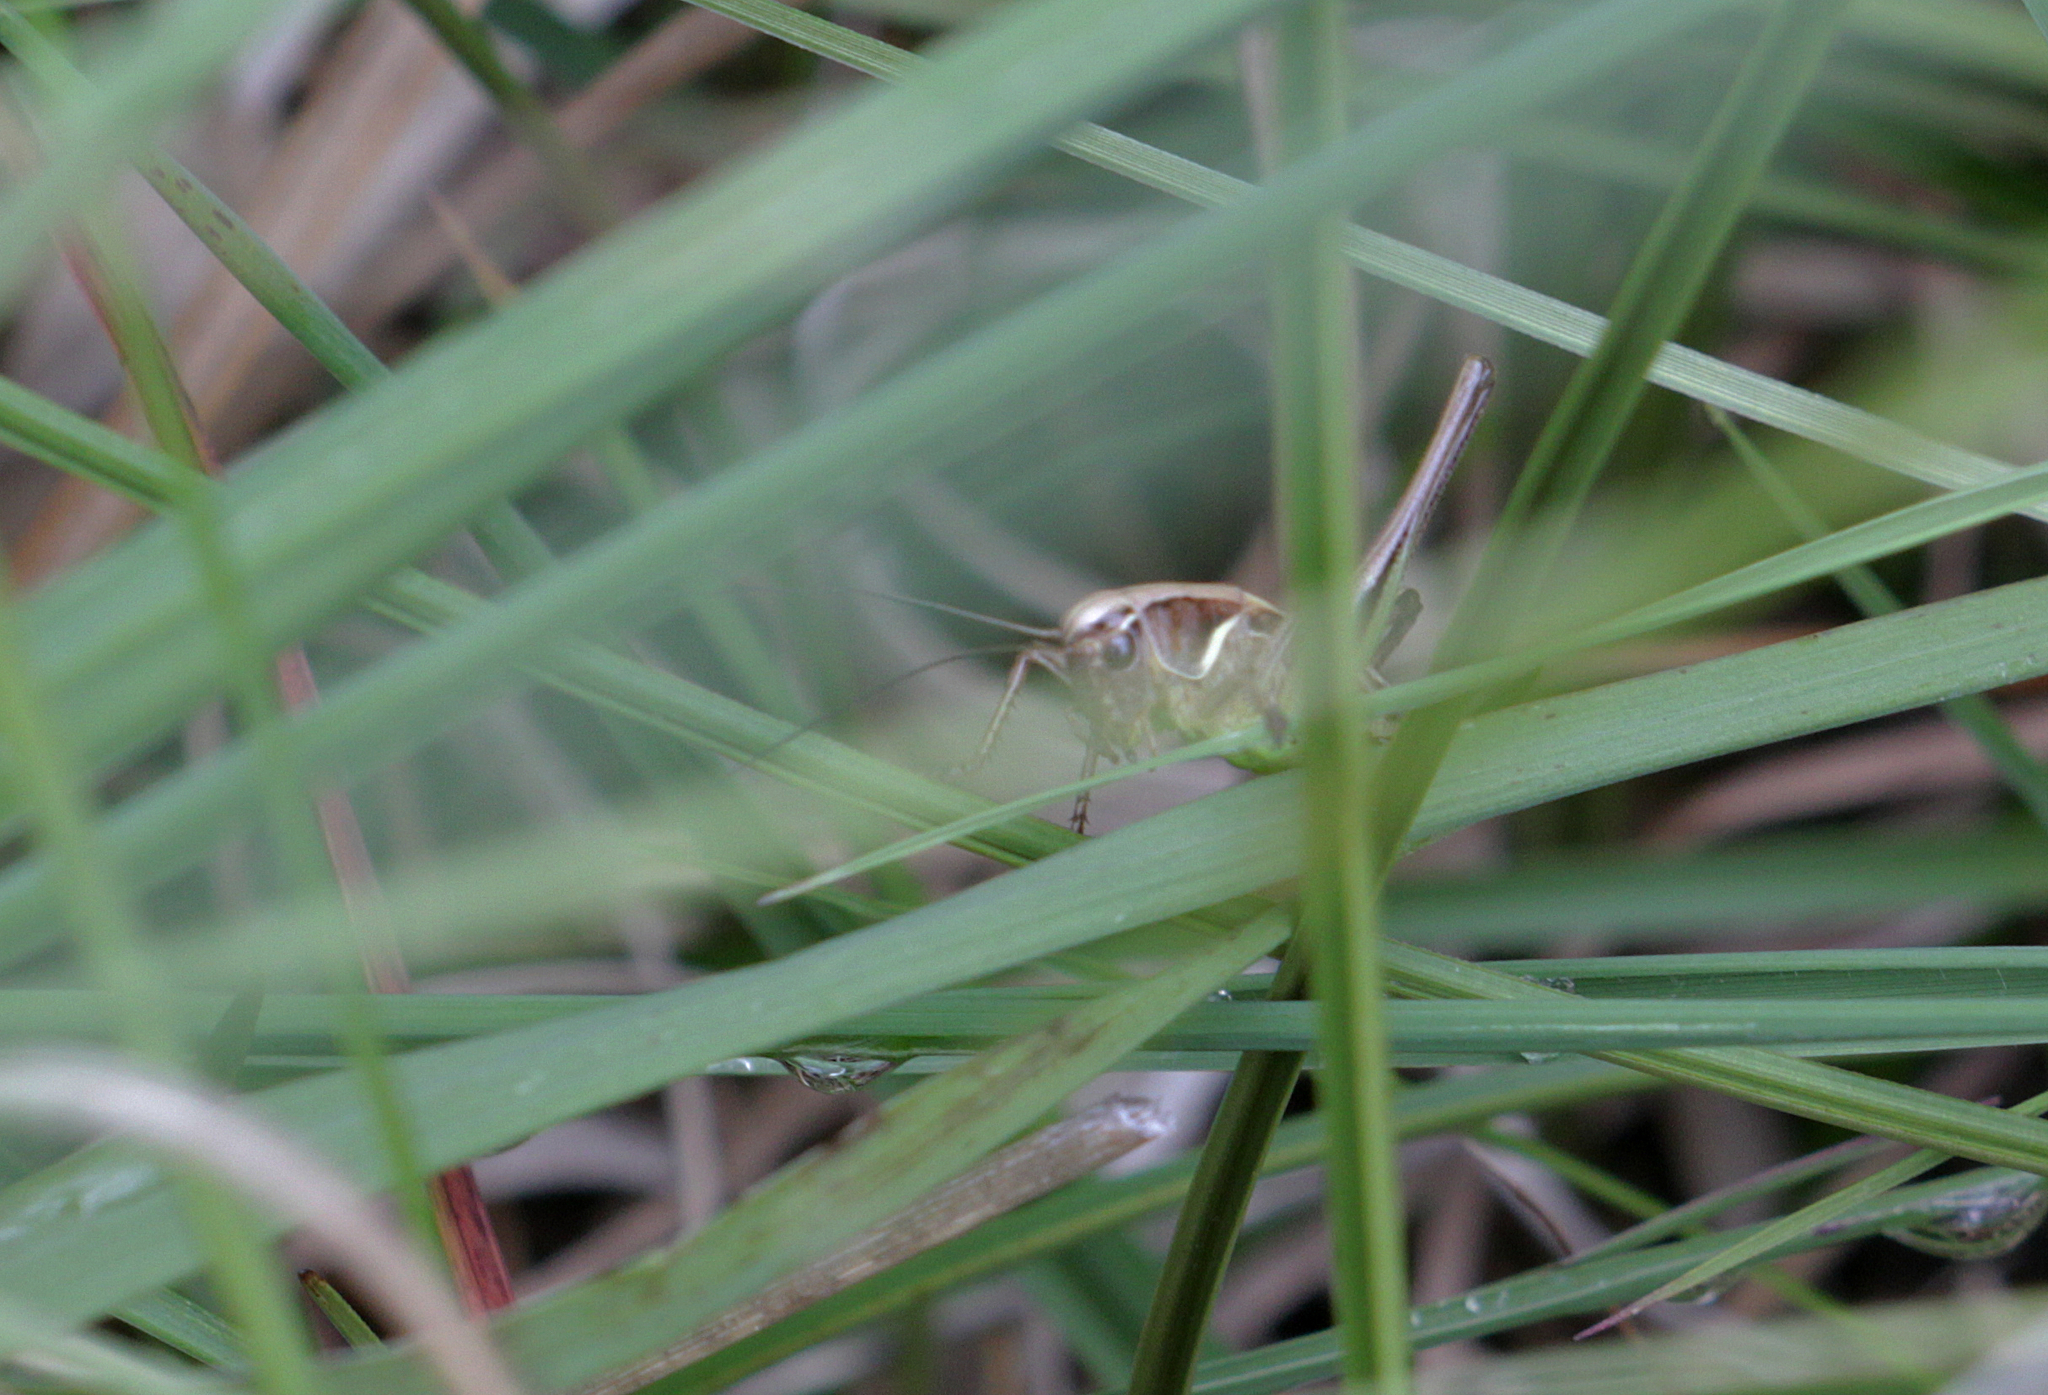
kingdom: Animalia
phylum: Arthropoda
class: Insecta
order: Orthoptera
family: Tettigoniidae
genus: Metrioptera
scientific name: Metrioptera brachyptera
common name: Bog bush-cricket
